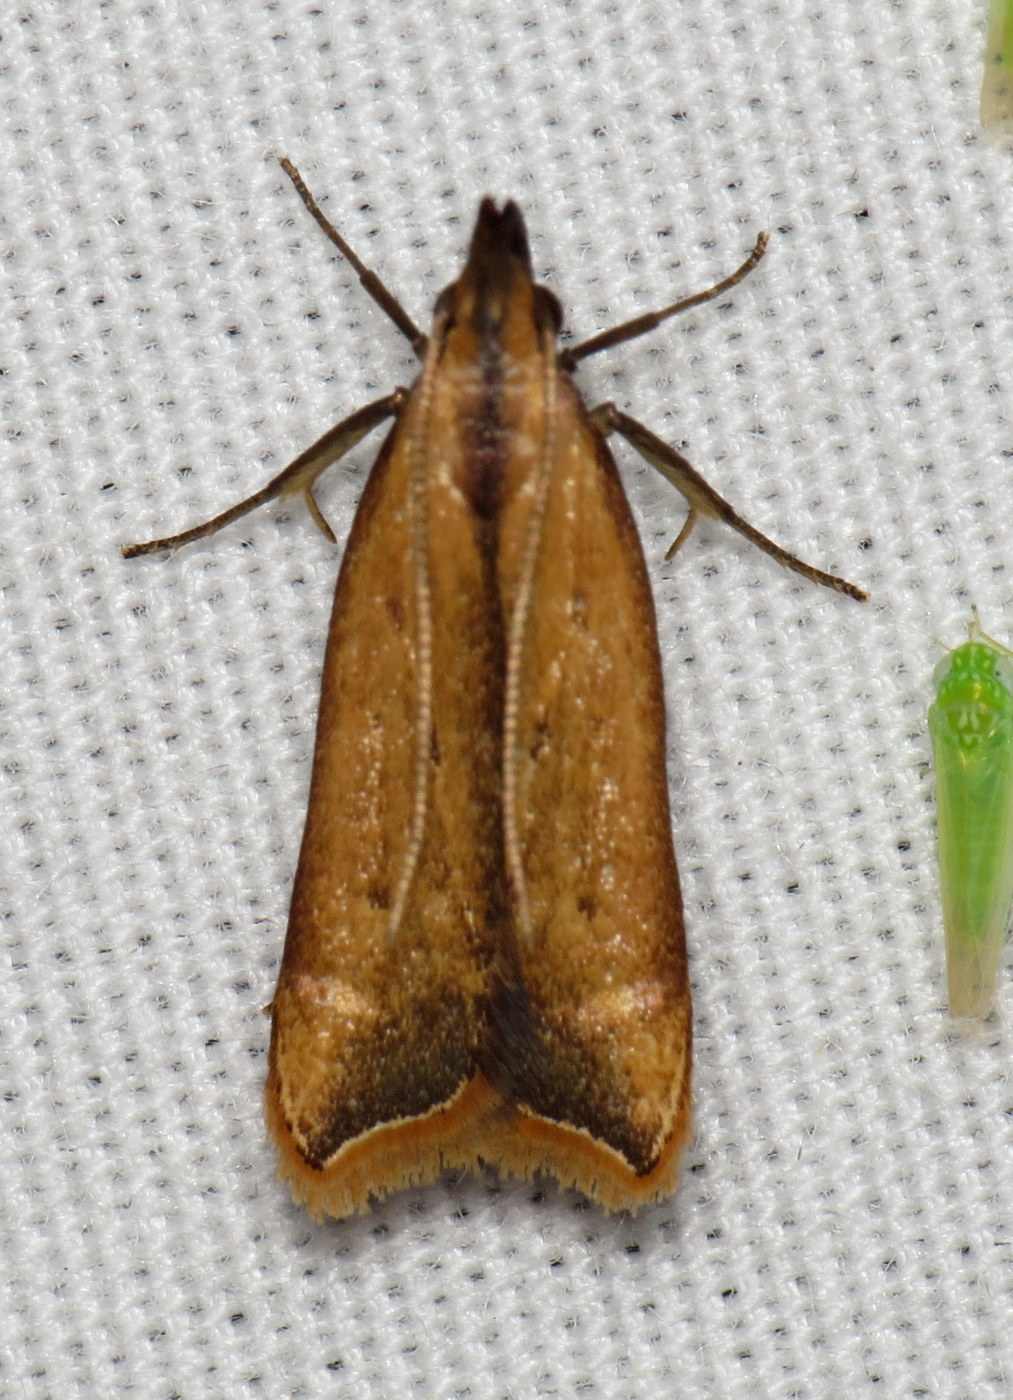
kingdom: Animalia
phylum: Arthropoda
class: Insecta
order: Lepidoptera
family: Gelechiidae
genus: Dichomeris
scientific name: Dichomeris heriguronis
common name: Black-edged dichomeris moth
